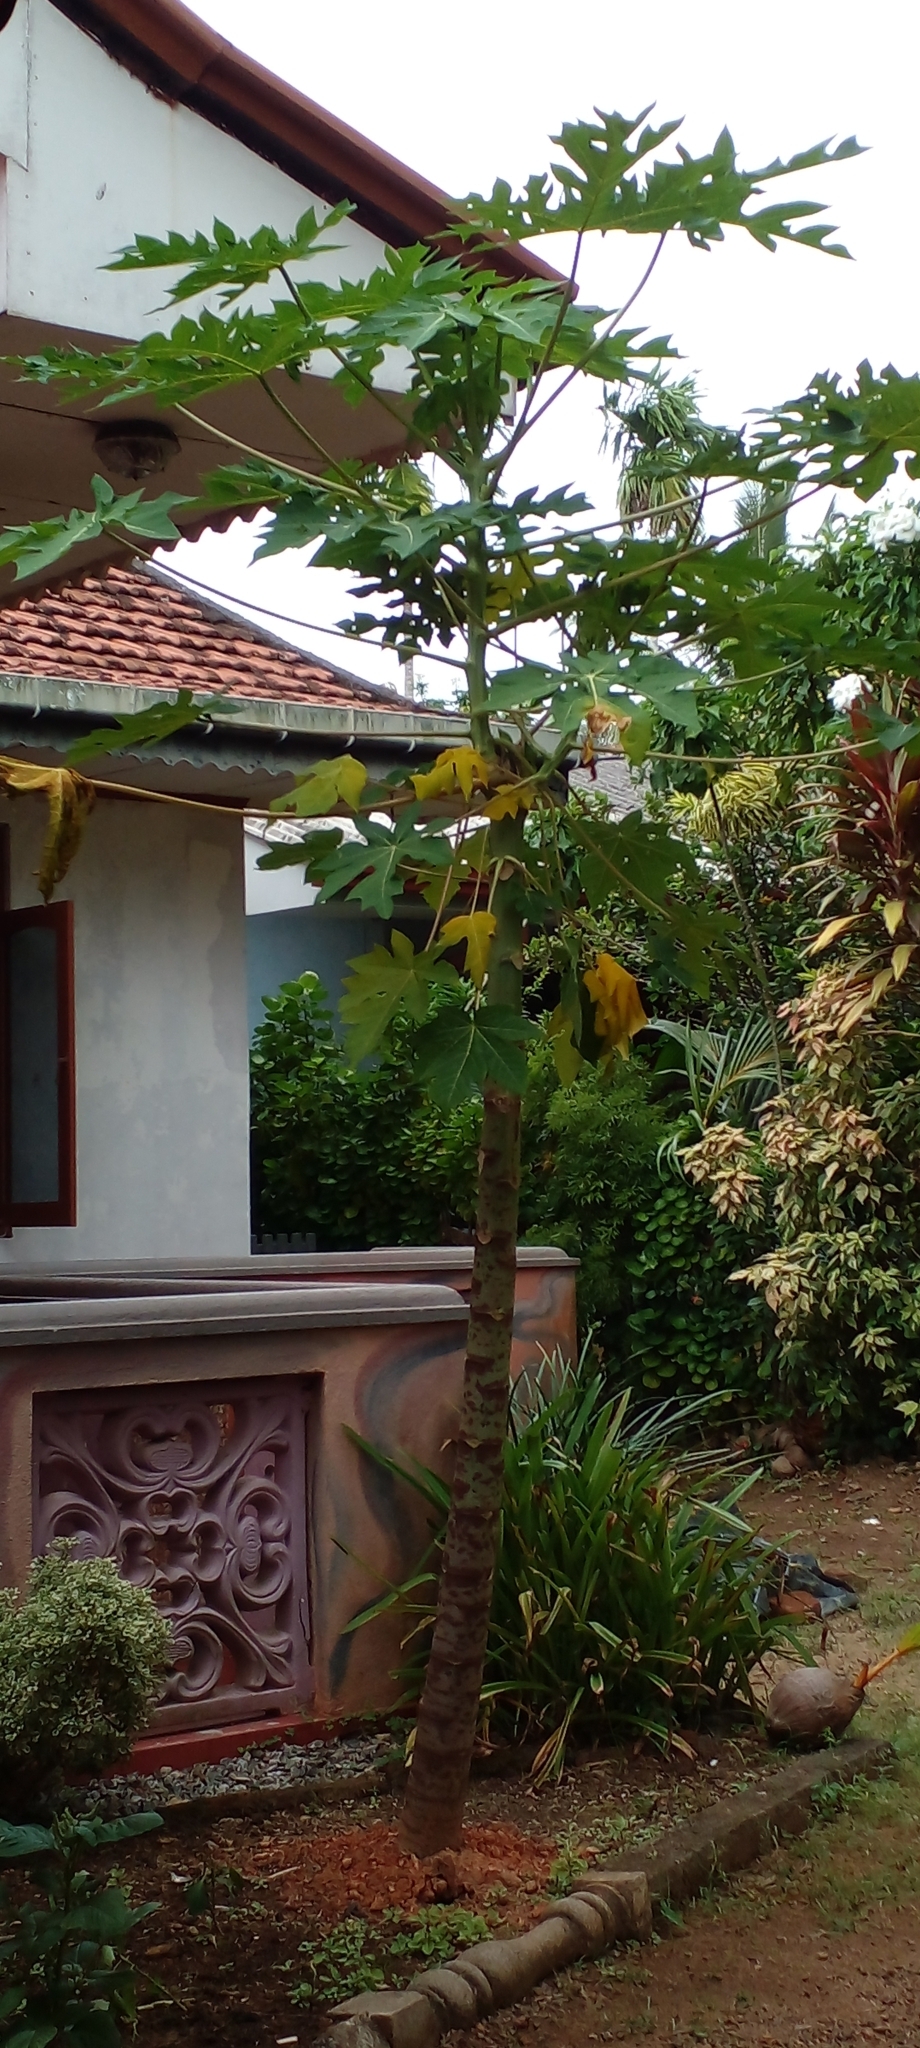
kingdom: Plantae
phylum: Tracheophyta
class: Magnoliopsida
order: Brassicales
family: Caricaceae
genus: Carica
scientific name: Carica papaya
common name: Papaya
